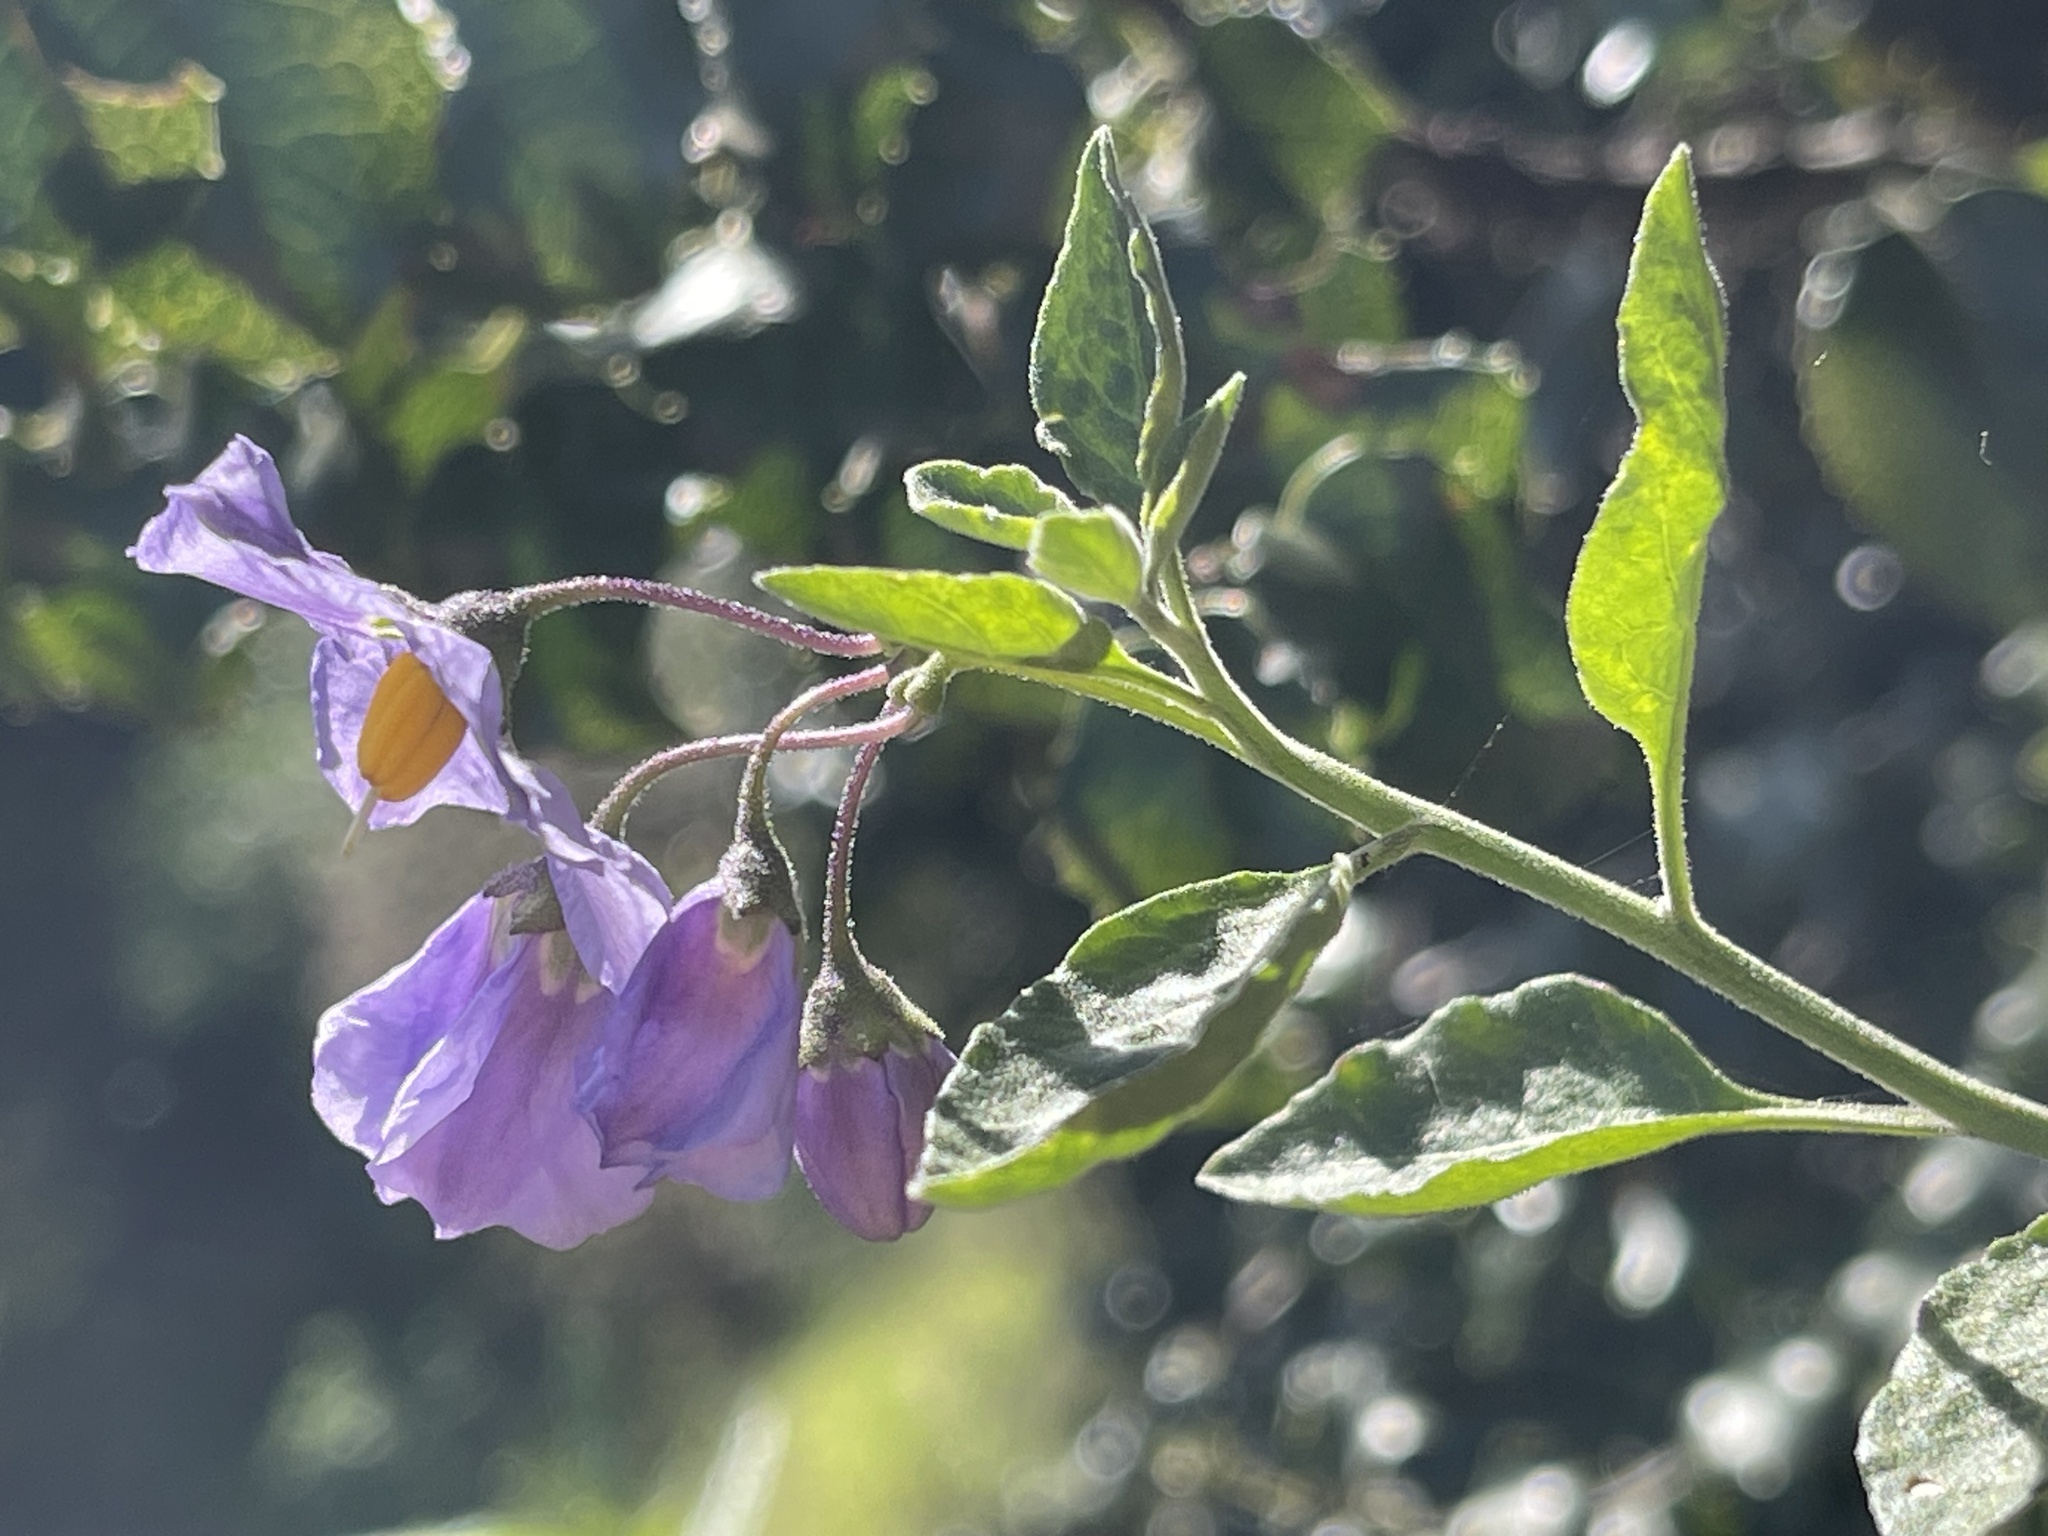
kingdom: Plantae
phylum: Tracheophyta
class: Magnoliopsida
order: Solanales
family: Solanaceae
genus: Solanum
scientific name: Solanum umbelliferum
